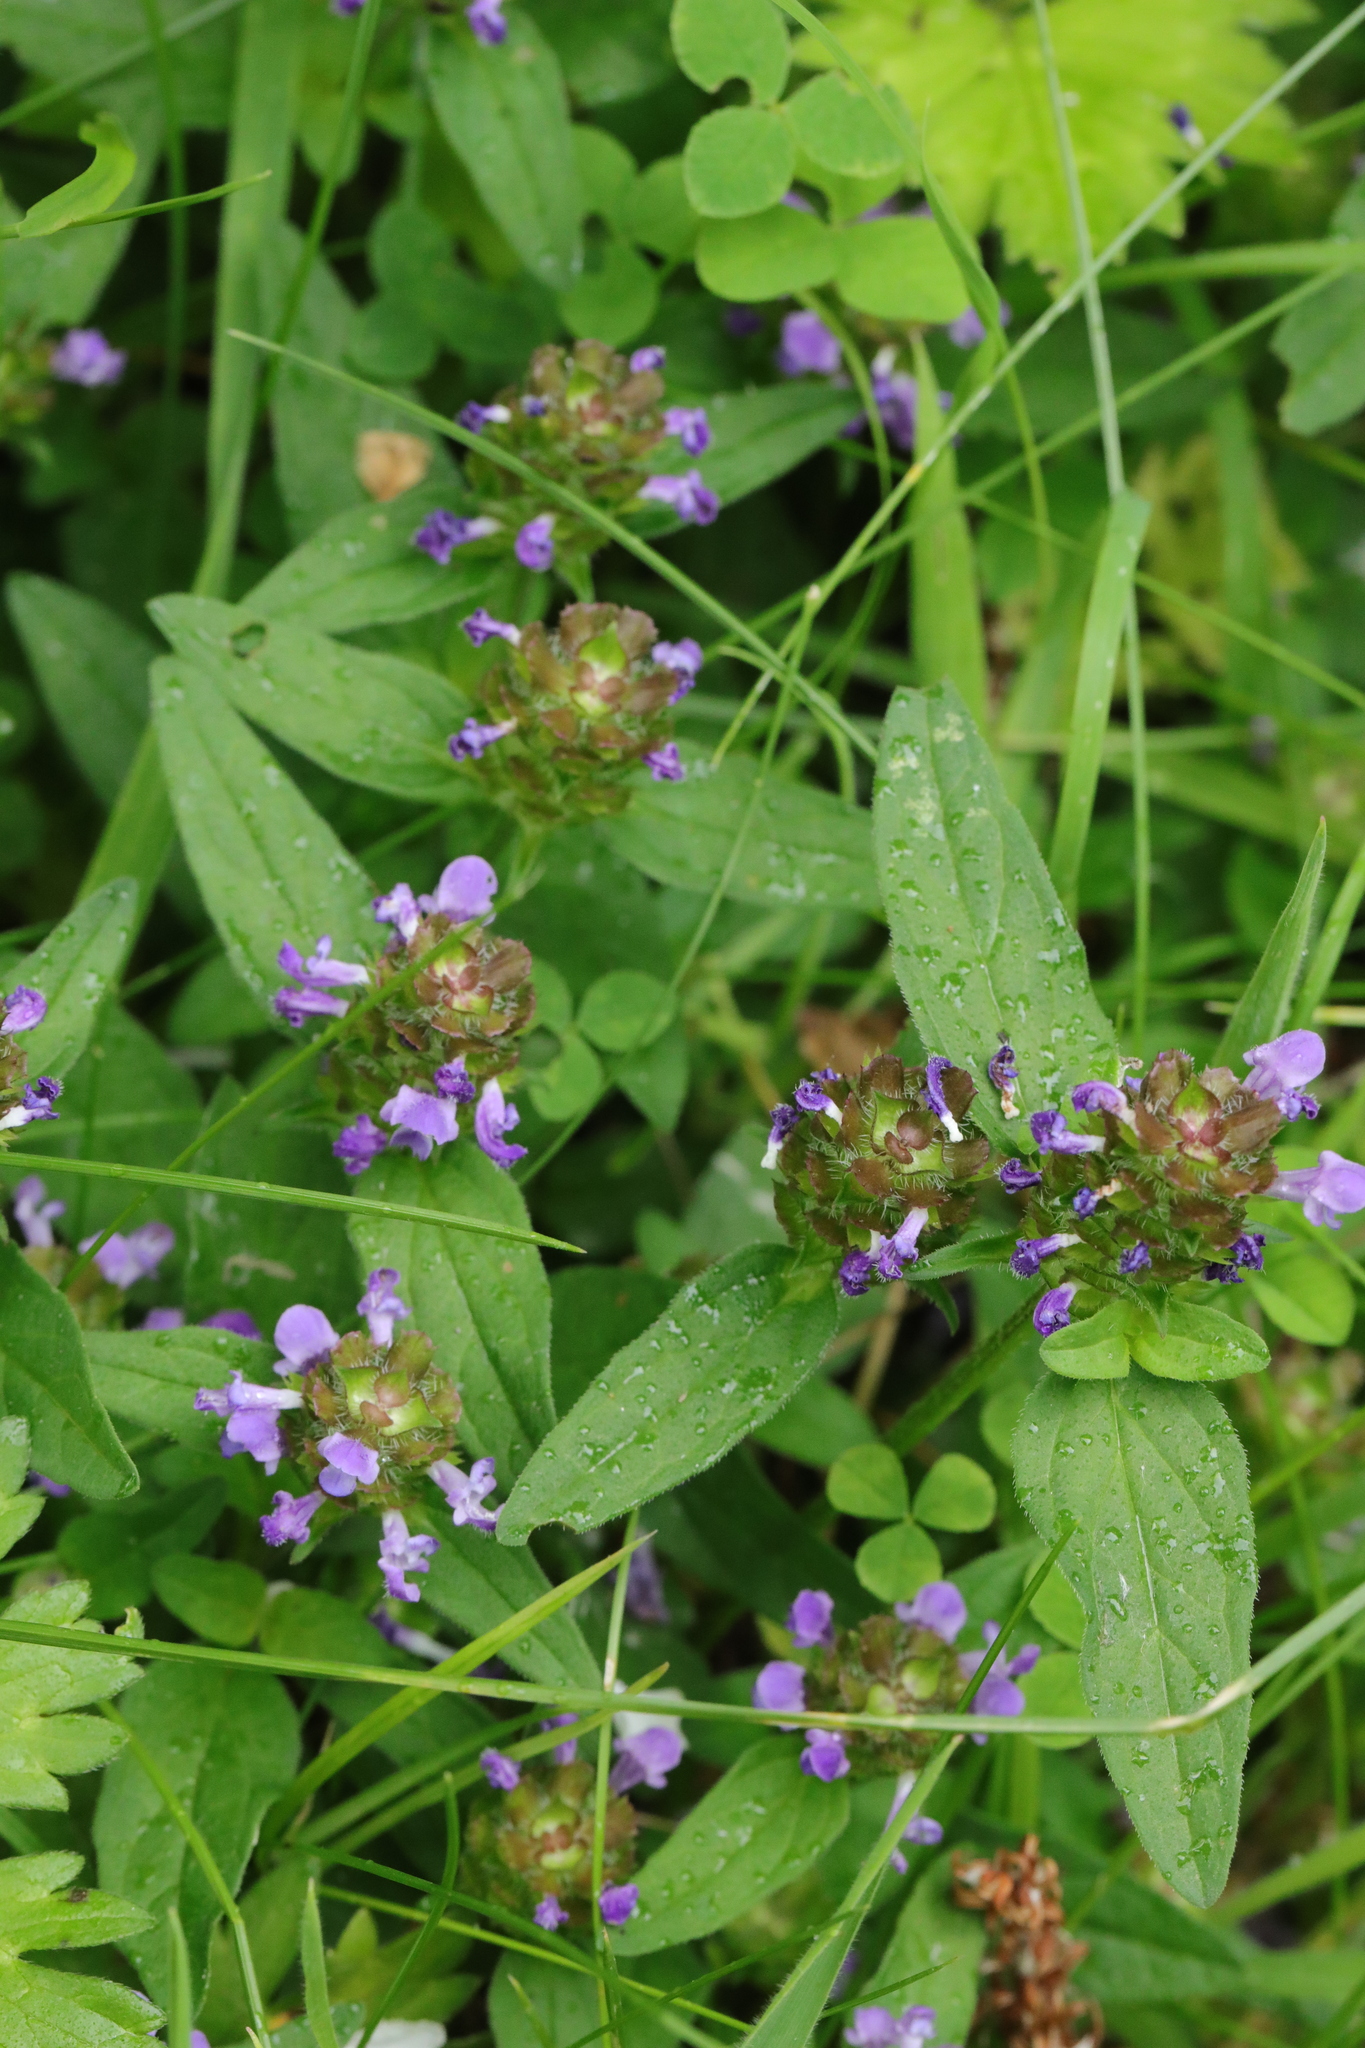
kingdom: Plantae
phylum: Tracheophyta
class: Magnoliopsida
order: Lamiales
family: Lamiaceae
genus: Prunella
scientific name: Prunella vulgaris
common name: Heal-all
